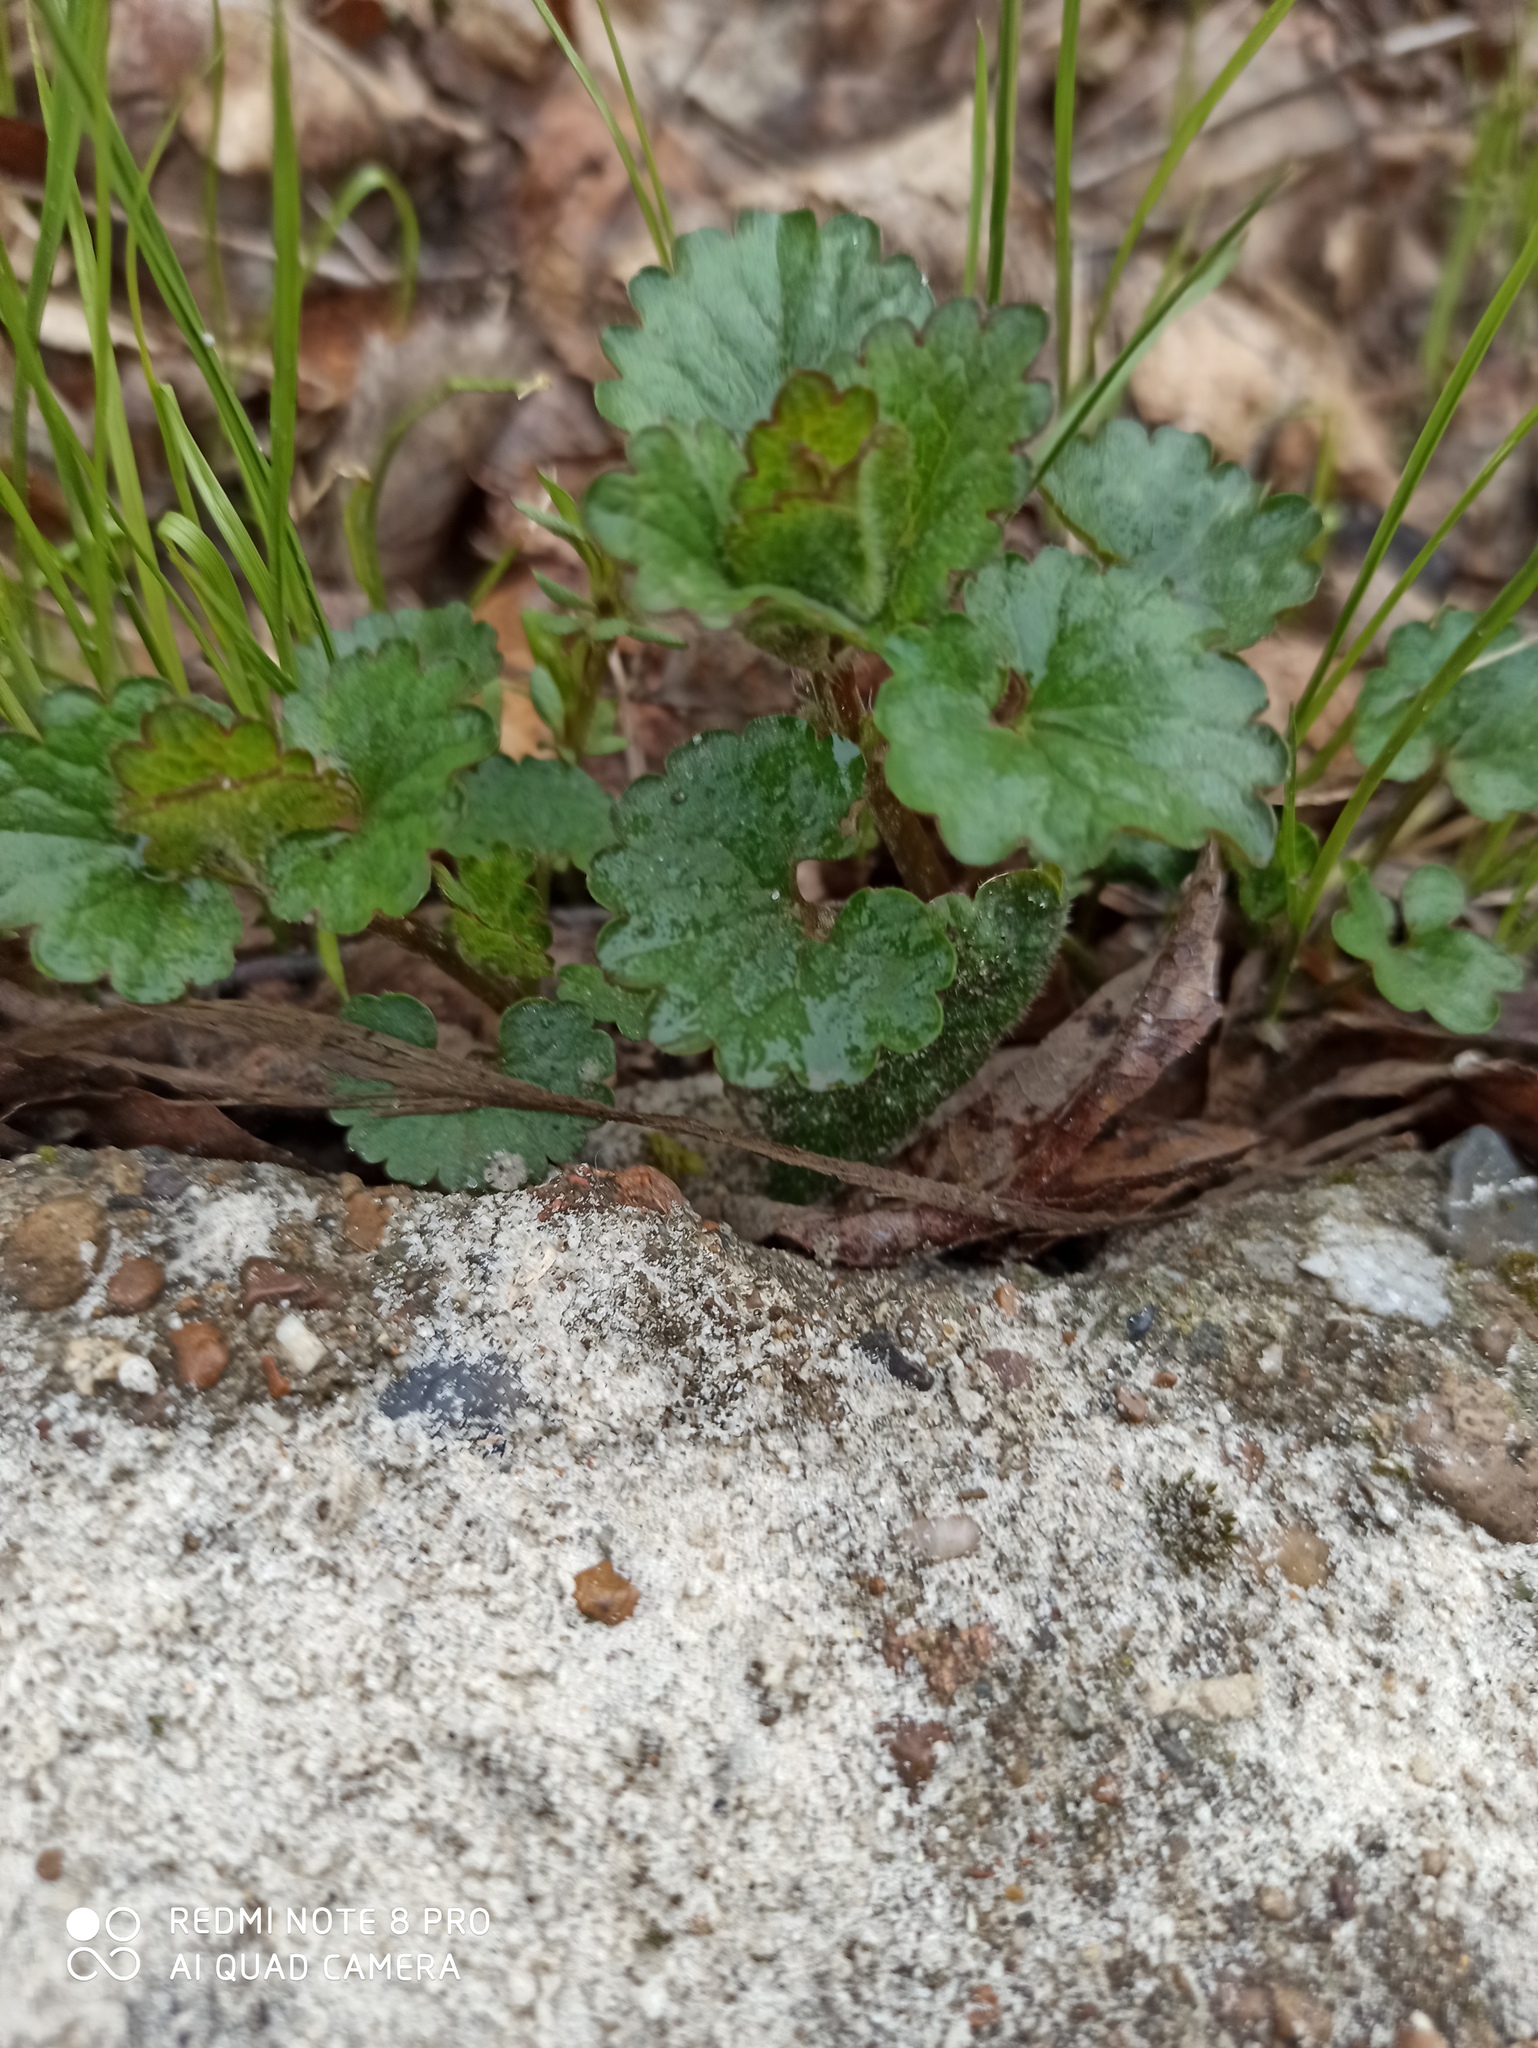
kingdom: Plantae
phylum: Tracheophyta
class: Magnoliopsida
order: Lamiales
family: Lamiaceae
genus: Glechoma
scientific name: Glechoma hederacea
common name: Ground ivy
